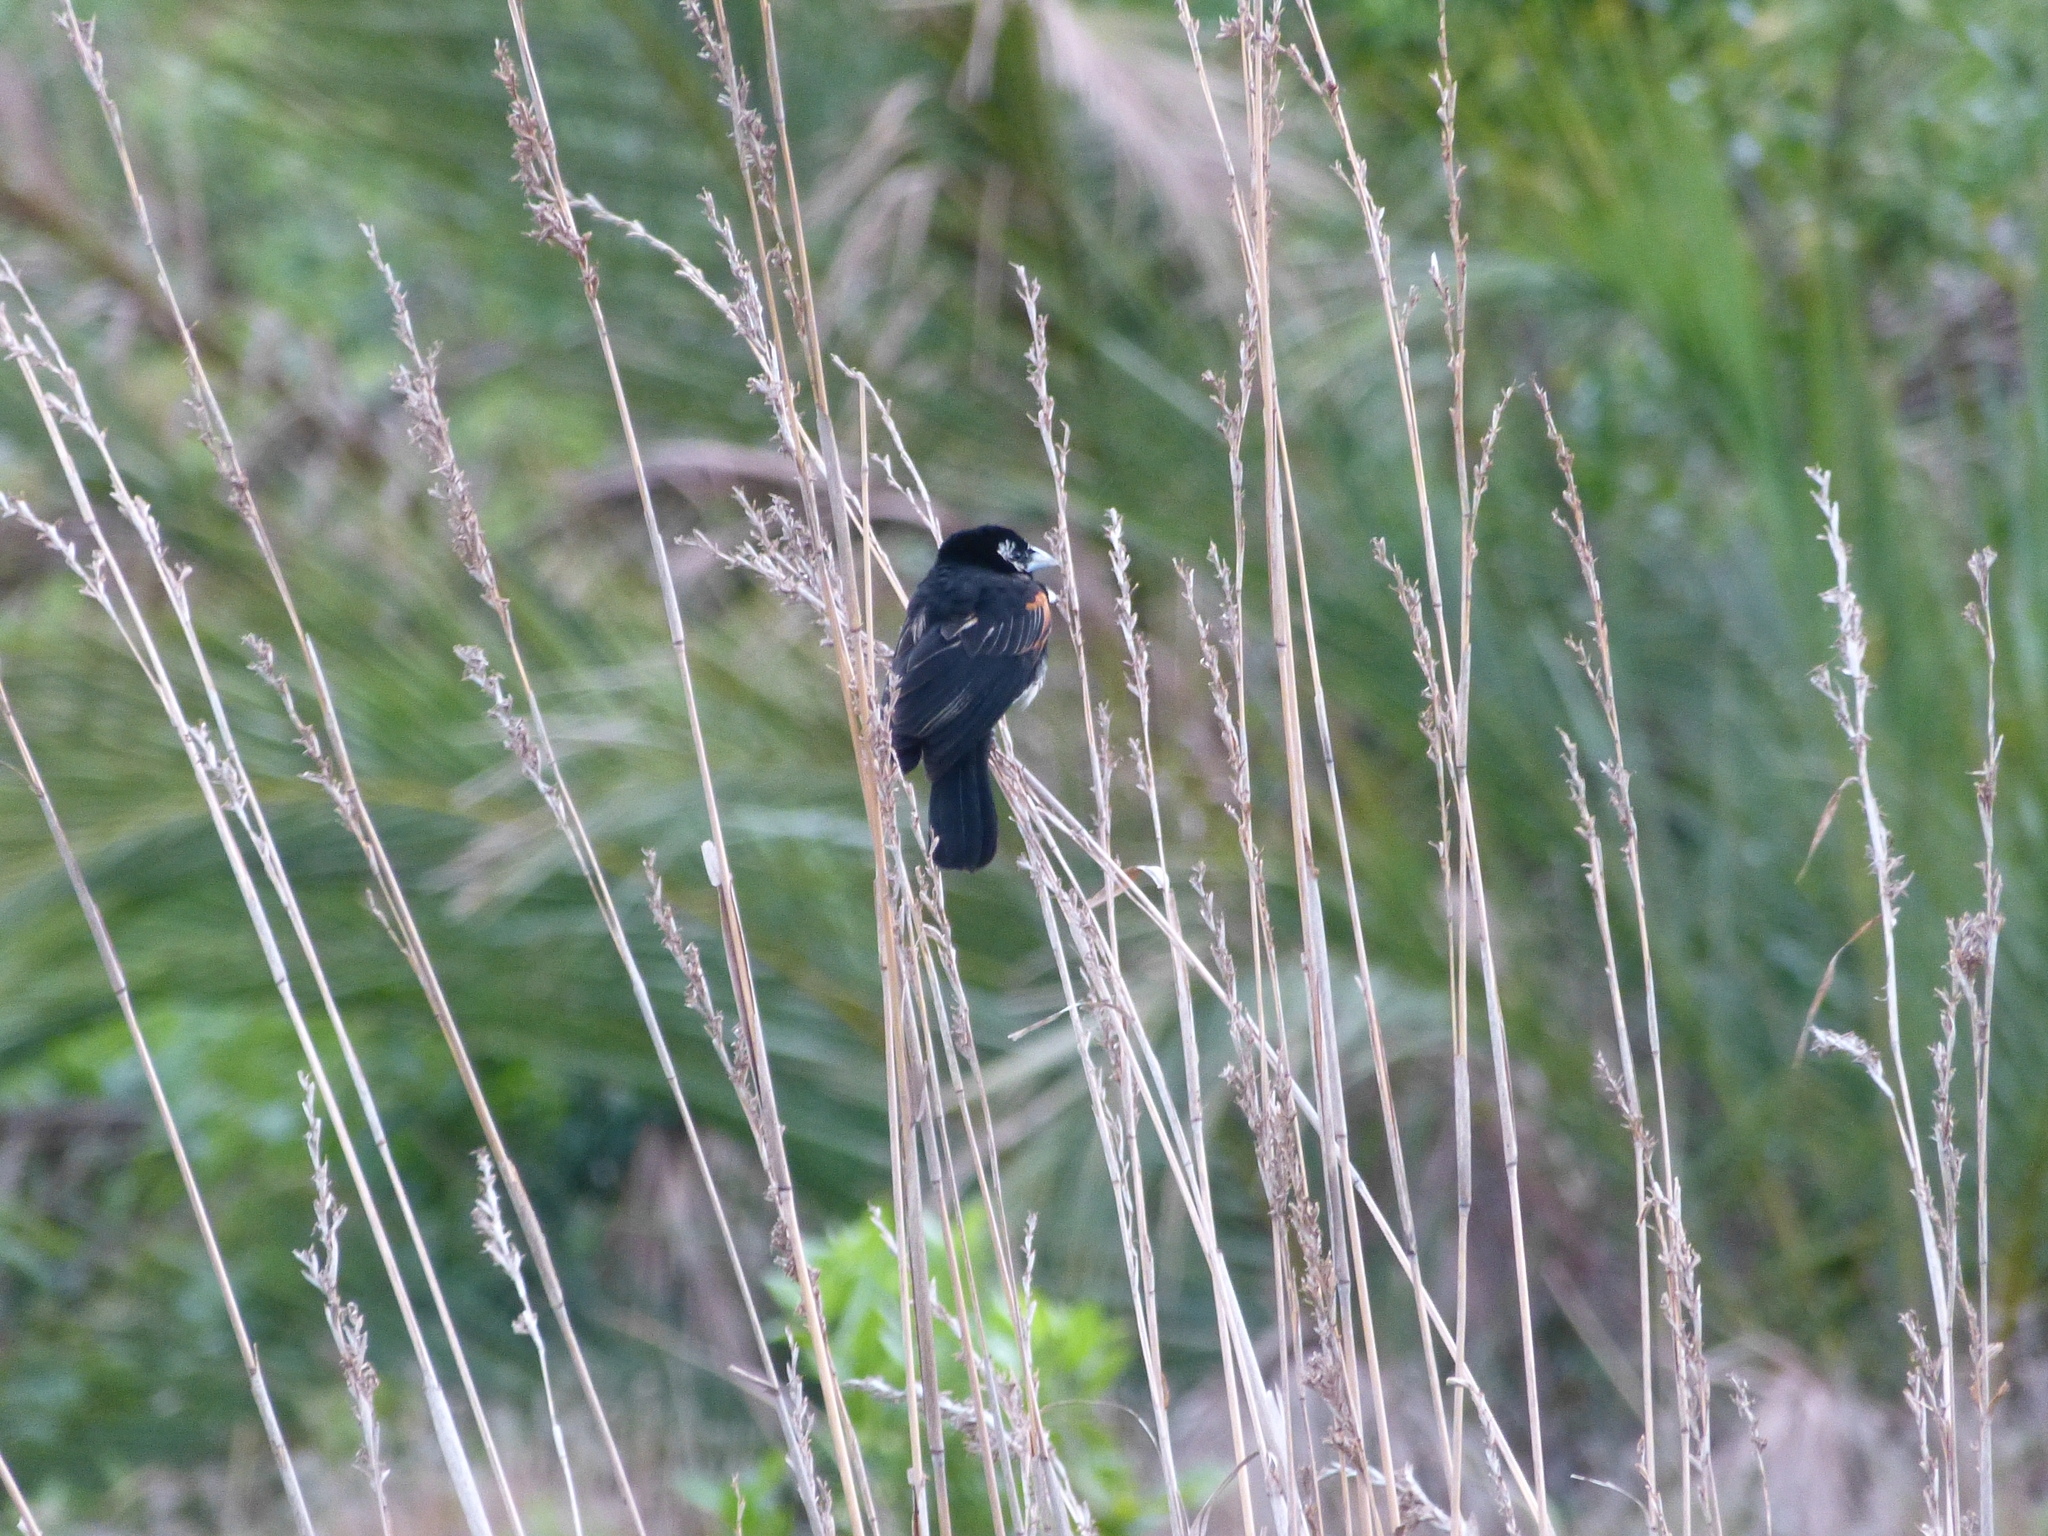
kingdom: Animalia
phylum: Chordata
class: Aves
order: Passeriformes
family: Ploceidae
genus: Euplectes
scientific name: Euplectes axillaris
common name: Fan-tailed widowbird
